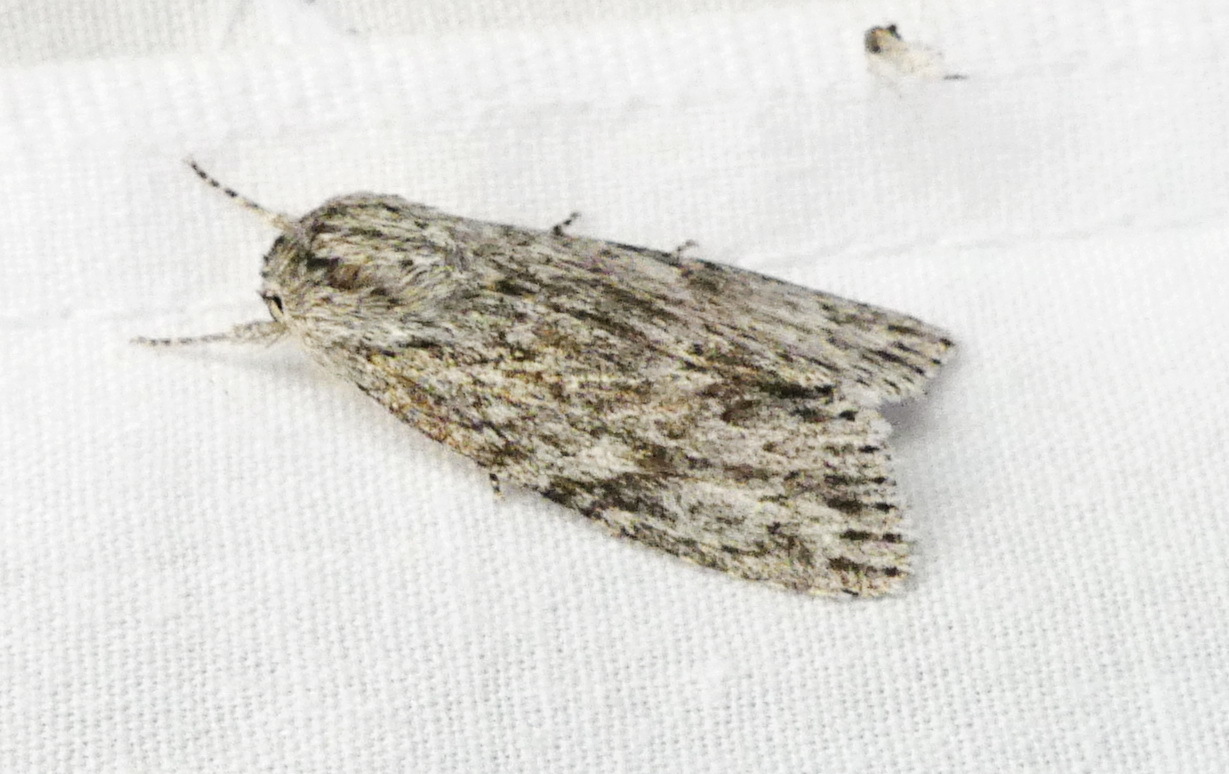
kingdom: Animalia
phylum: Arthropoda
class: Insecta
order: Lepidoptera
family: Noctuidae
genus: Acronicta
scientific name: Acronicta oblinita
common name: Smeared dagger
